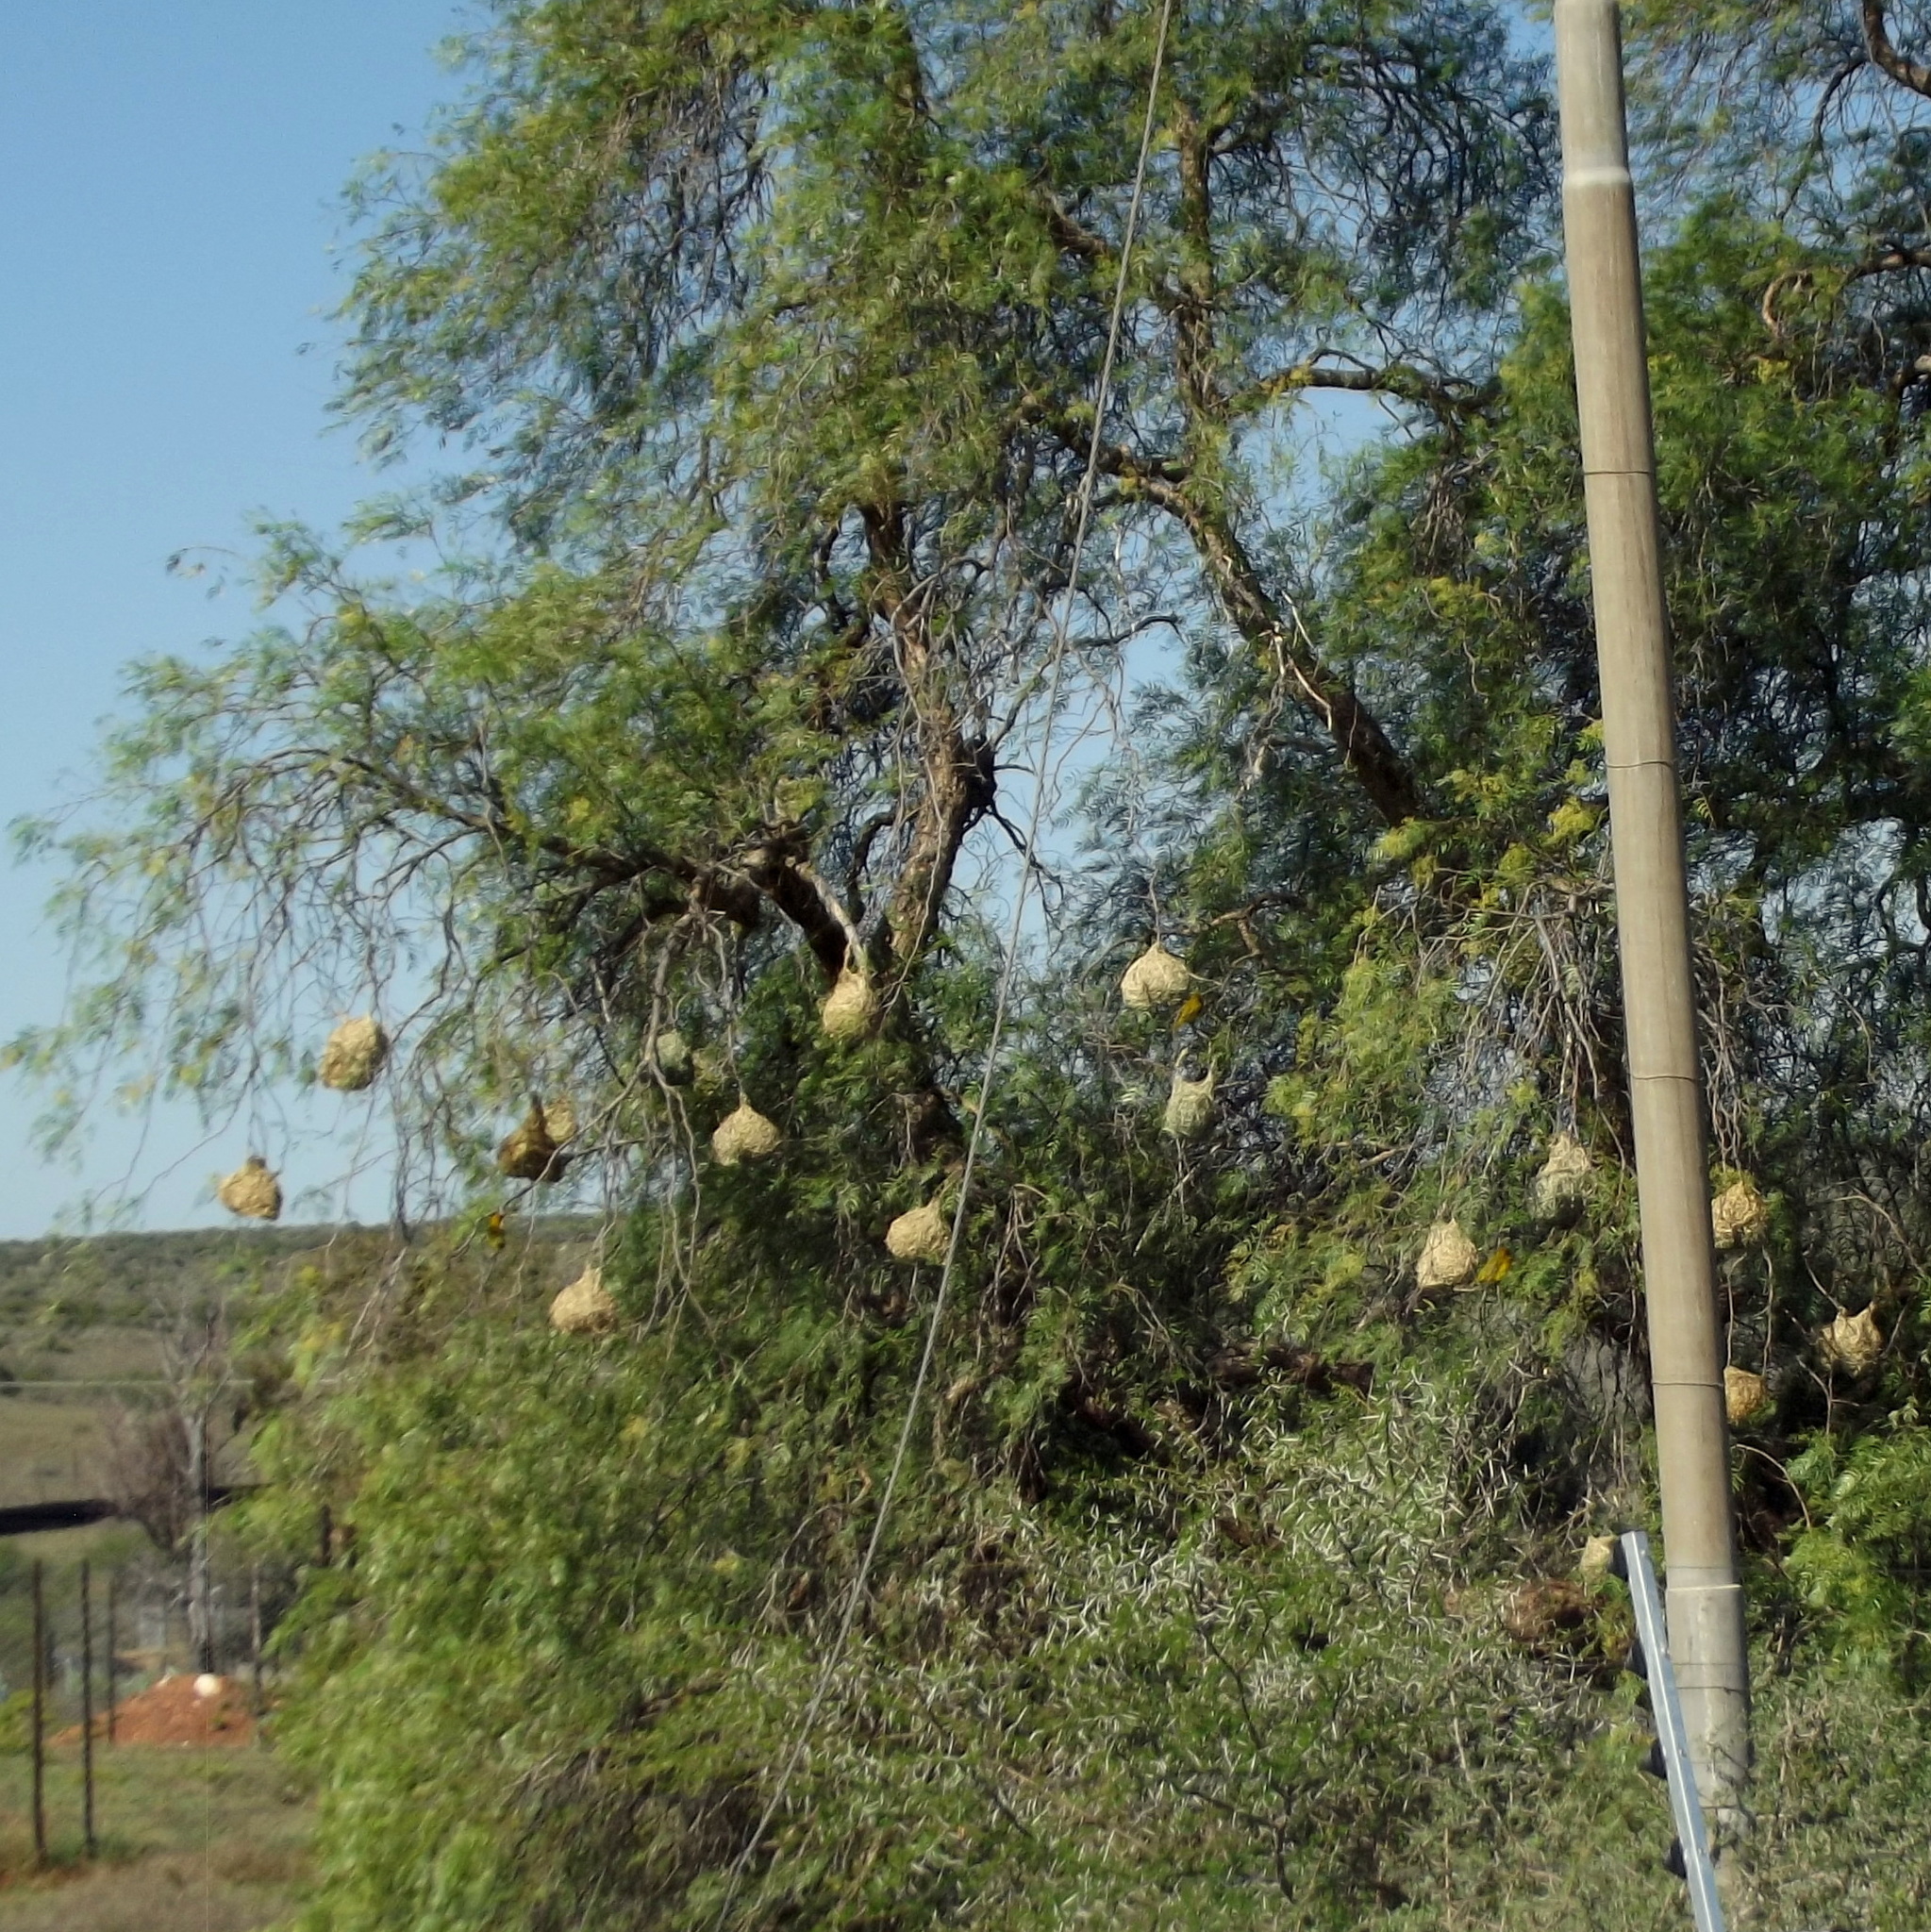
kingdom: Animalia
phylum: Chordata
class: Aves
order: Passeriformes
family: Ploceidae
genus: Ploceus
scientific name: Ploceus capensis
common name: Cape weaver
